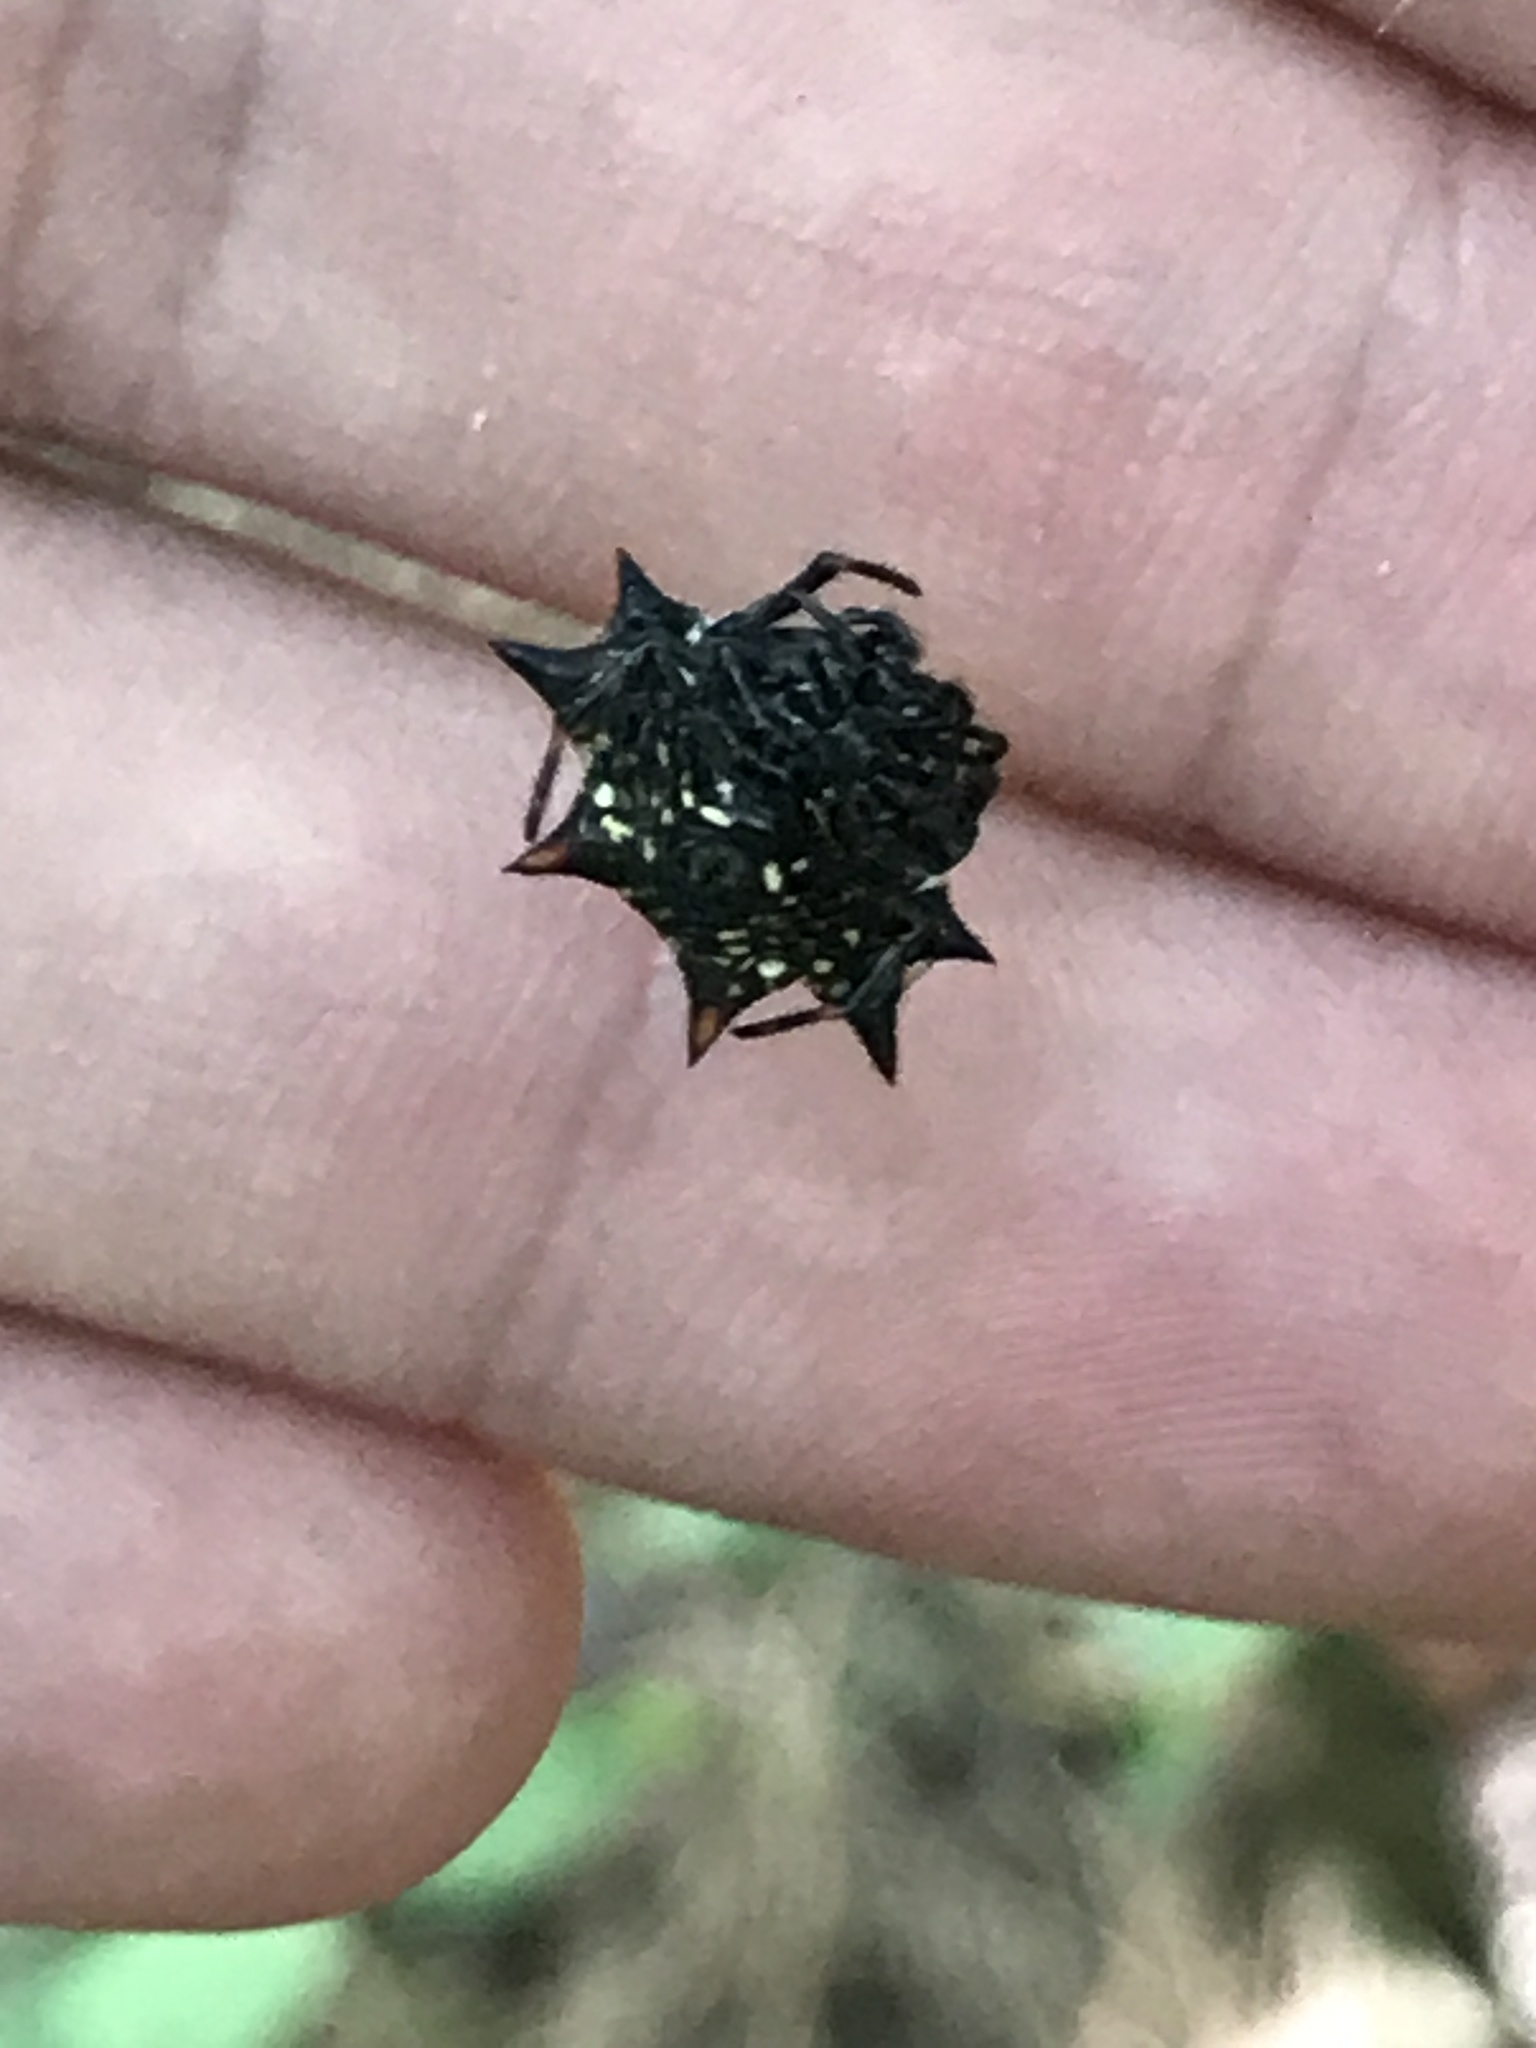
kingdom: Animalia
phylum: Arthropoda
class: Arachnida
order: Araneae
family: Araneidae
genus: Gasteracantha
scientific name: Gasteracantha cancriformis
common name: Orb weavers
